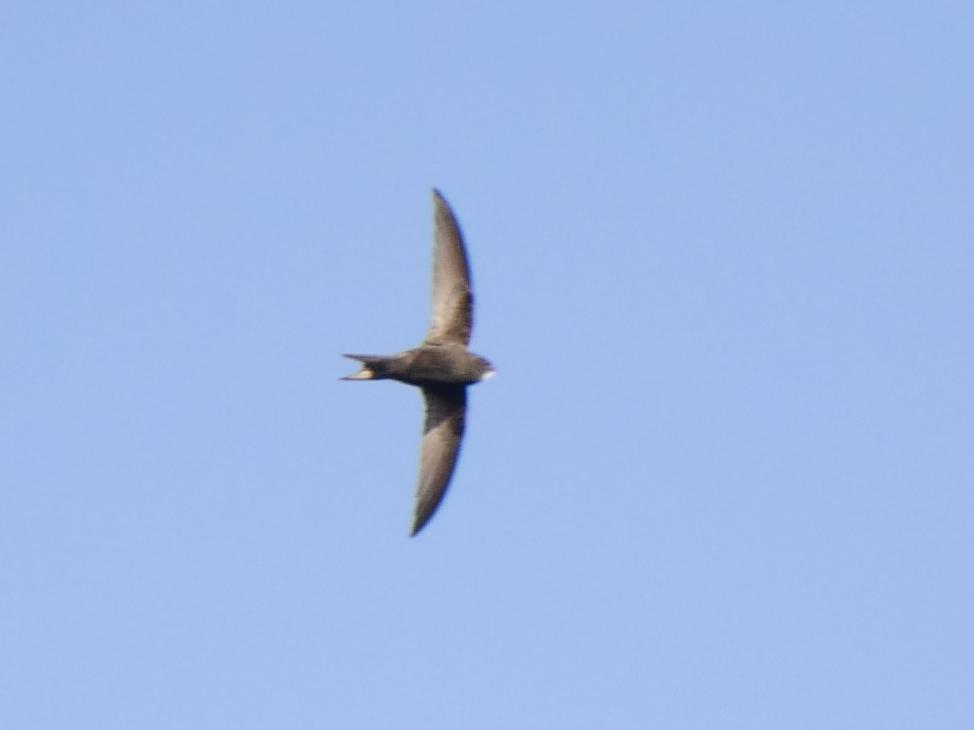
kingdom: Animalia
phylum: Chordata
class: Aves
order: Apodiformes
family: Apodidae
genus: Apus
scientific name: Apus apus
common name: Common swift
